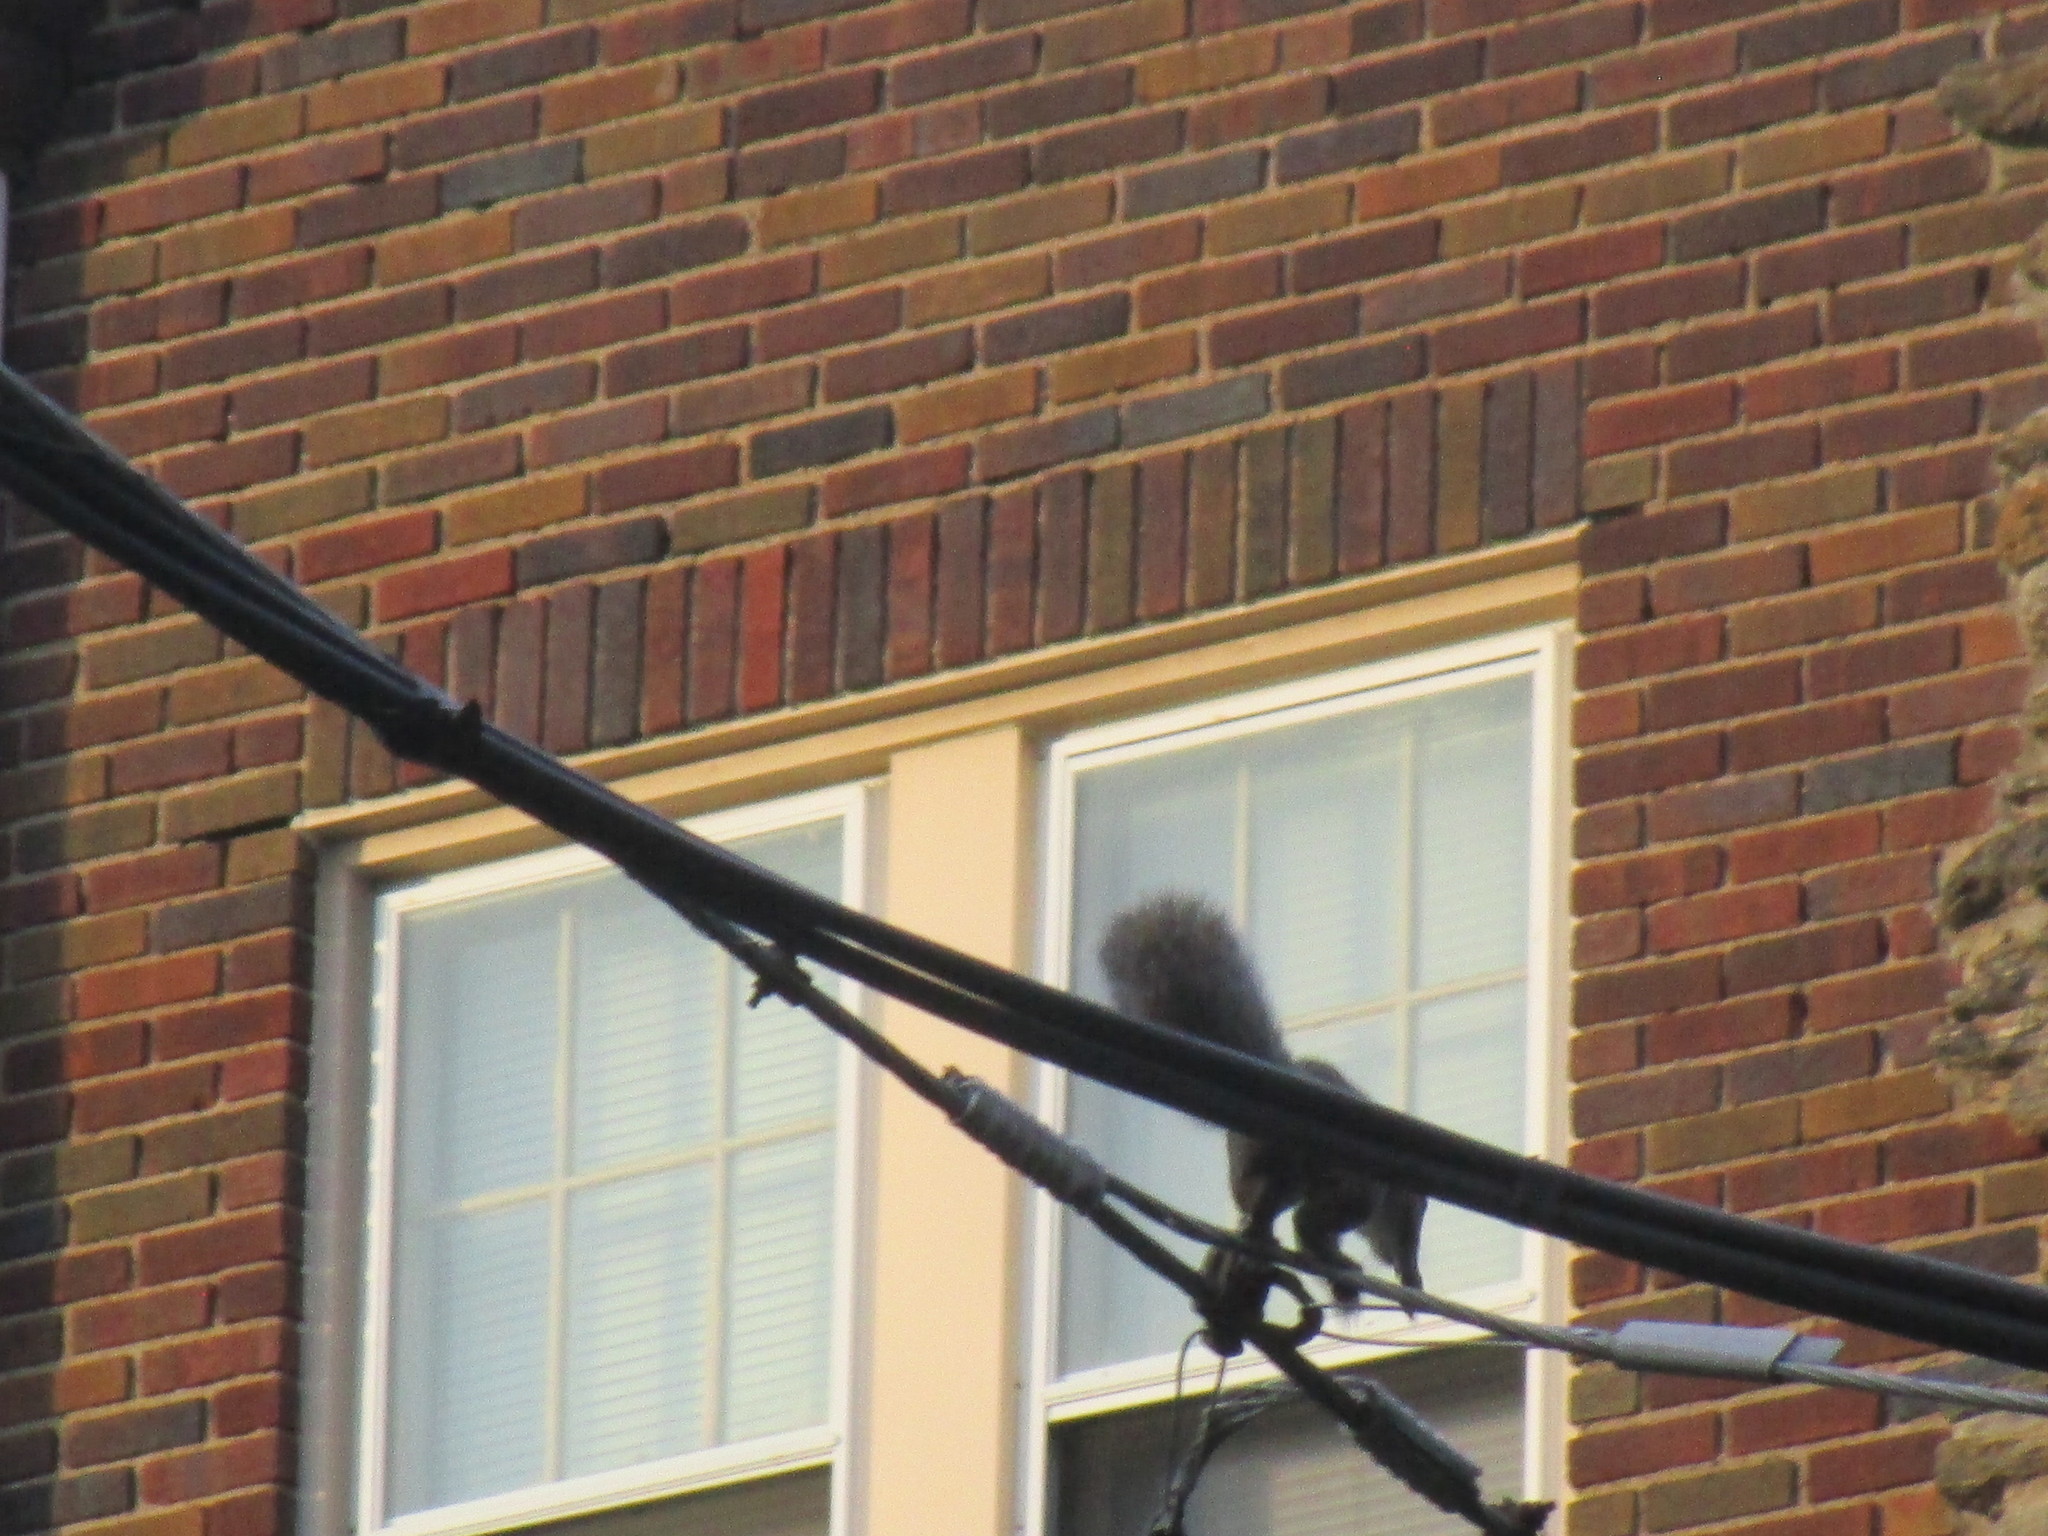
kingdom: Animalia
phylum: Chordata
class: Mammalia
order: Rodentia
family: Sciuridae
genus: Sciurus
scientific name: Sciurus carolinensis
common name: Eastern gray squirrel
